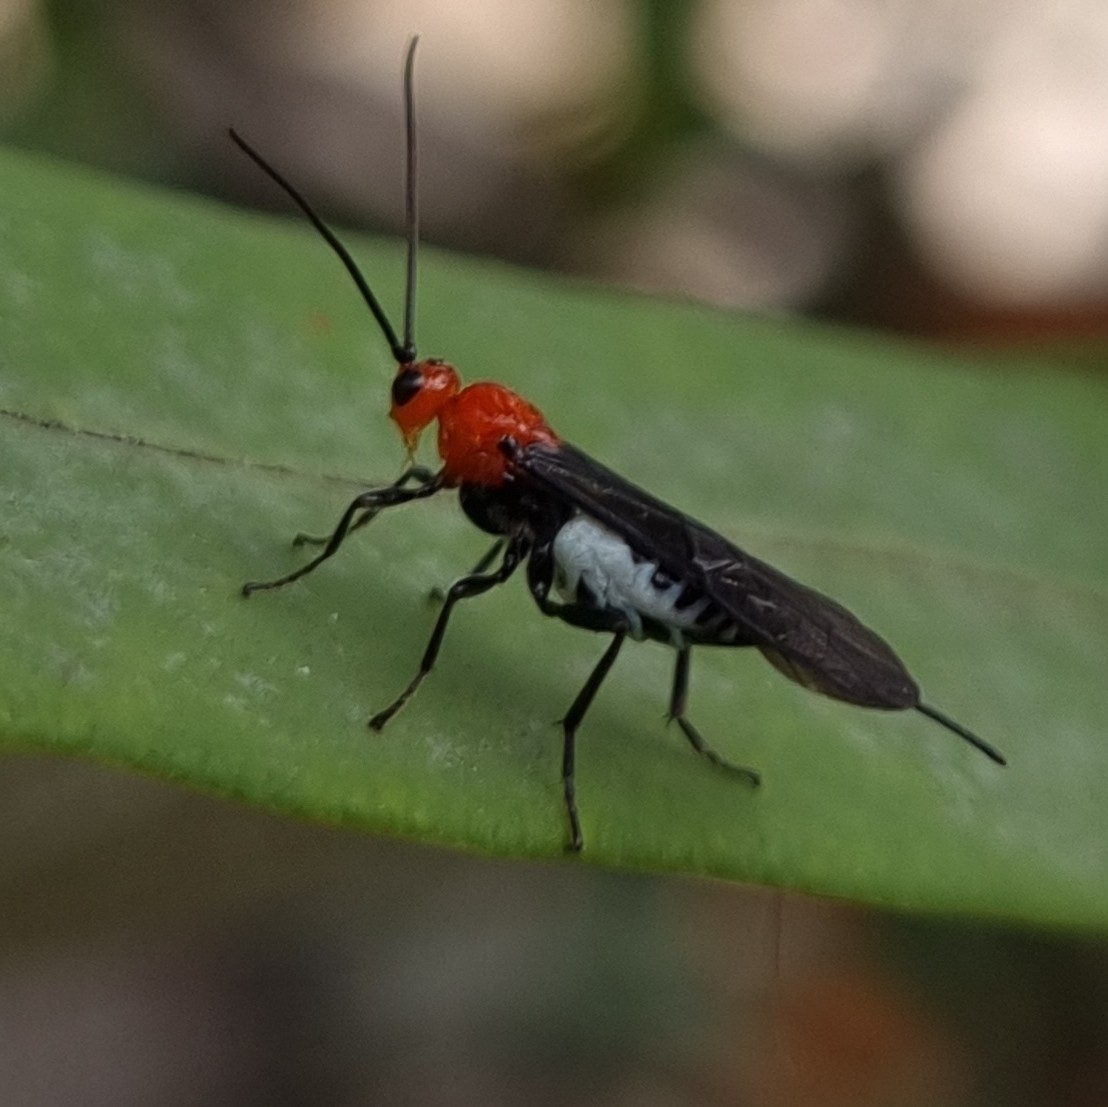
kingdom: Animalia
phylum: Arthropoda
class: Insecta
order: Hymenoptera
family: Braconidae
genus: Callibracon
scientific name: Callibracon
